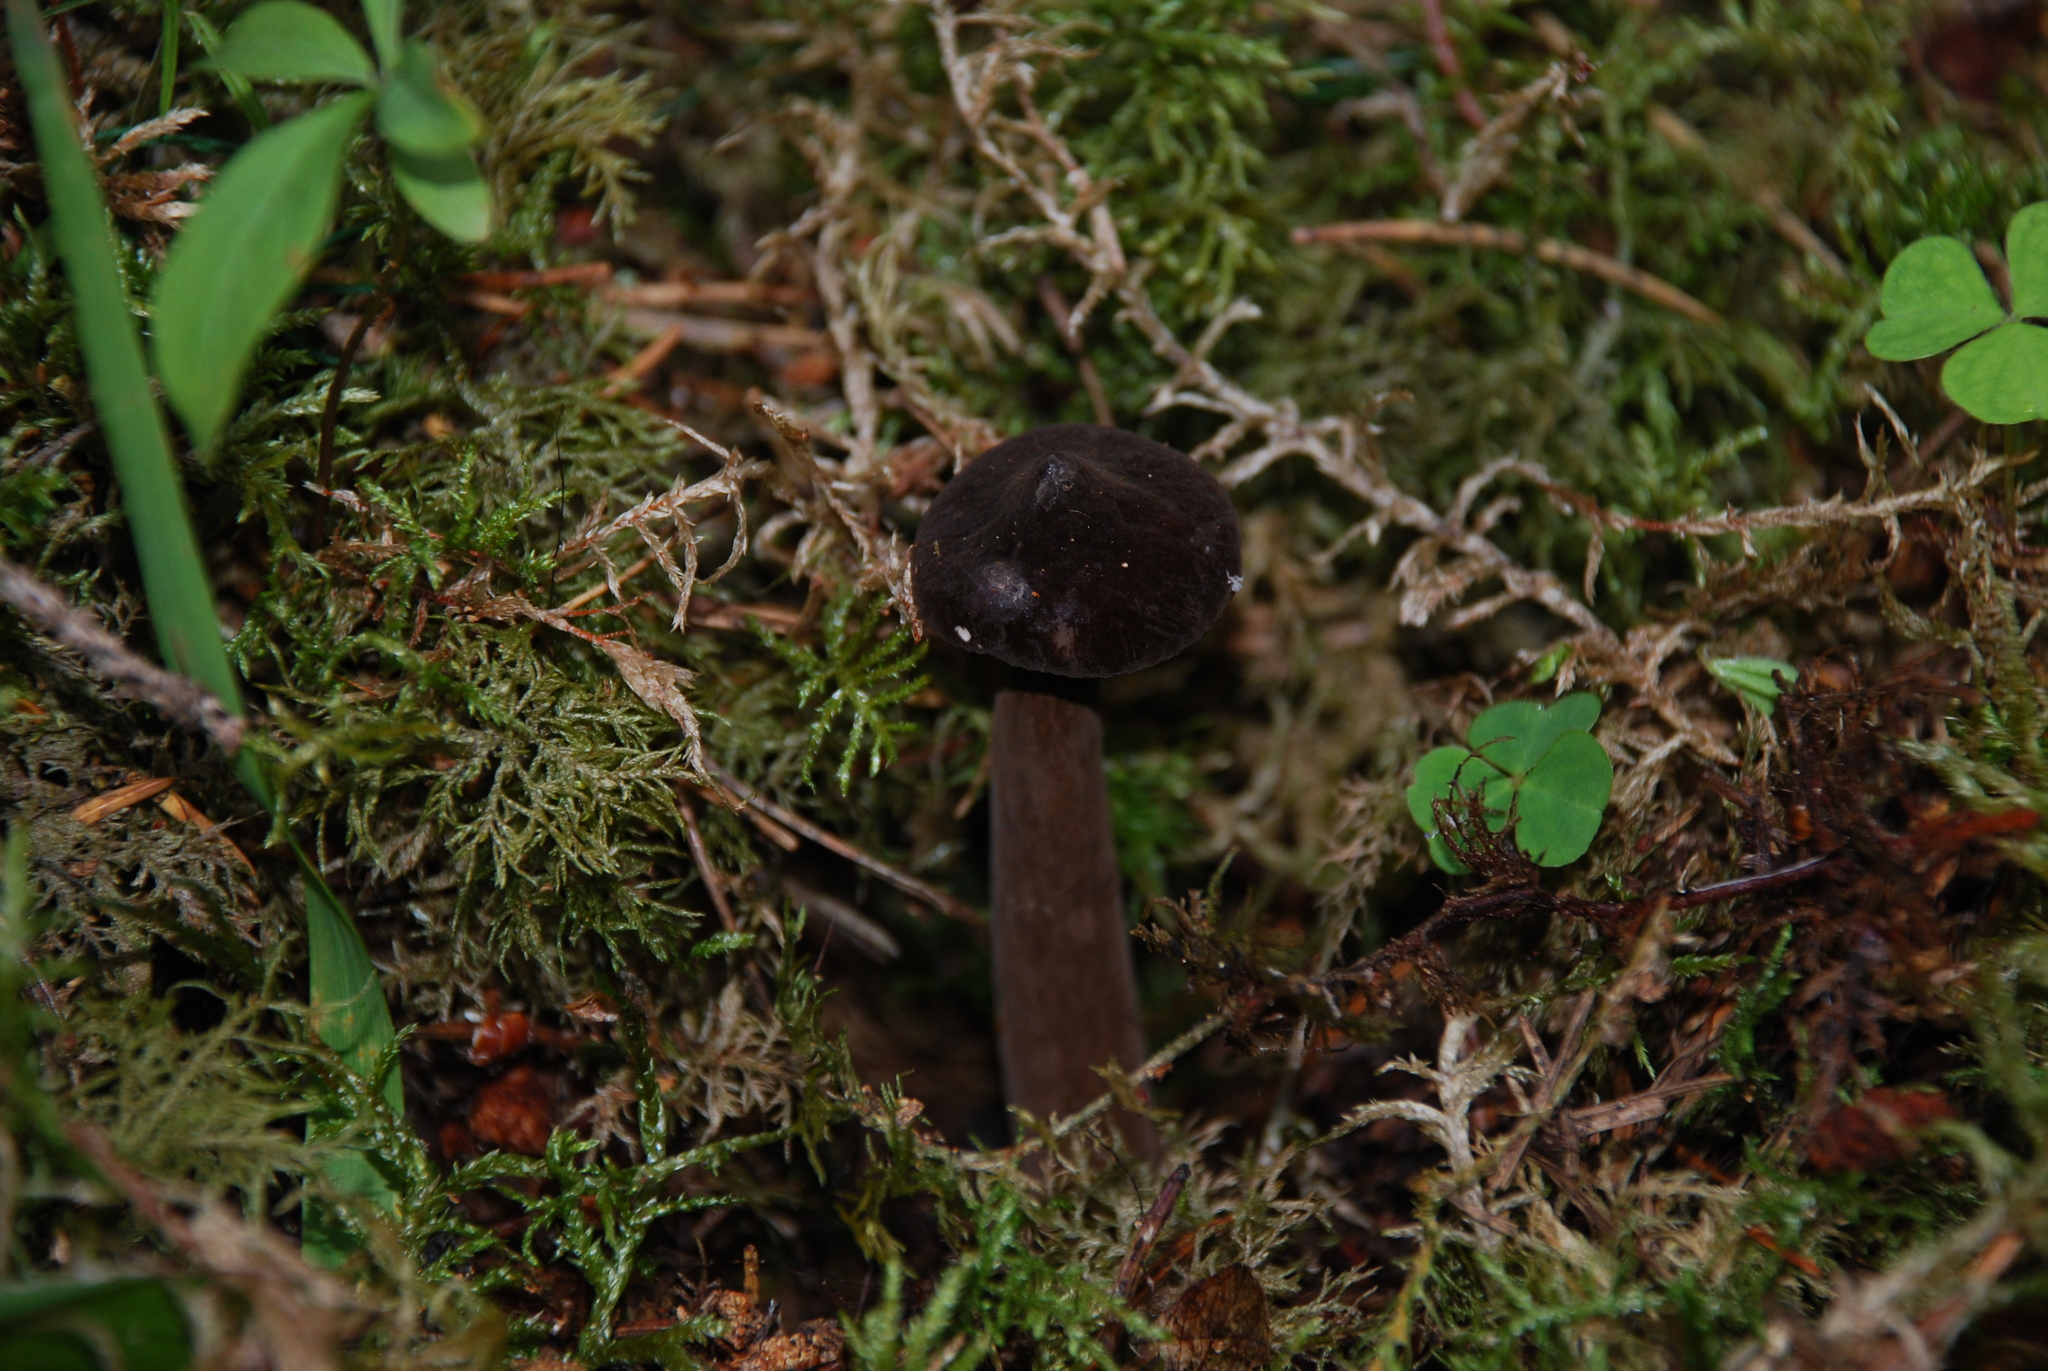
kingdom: Fungi
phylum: Basidiomycota
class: Agaricomycetes
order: Russulales
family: Russulaceae
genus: Lactarius
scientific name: Lactarius lignyotus
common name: Velvet milkcap
